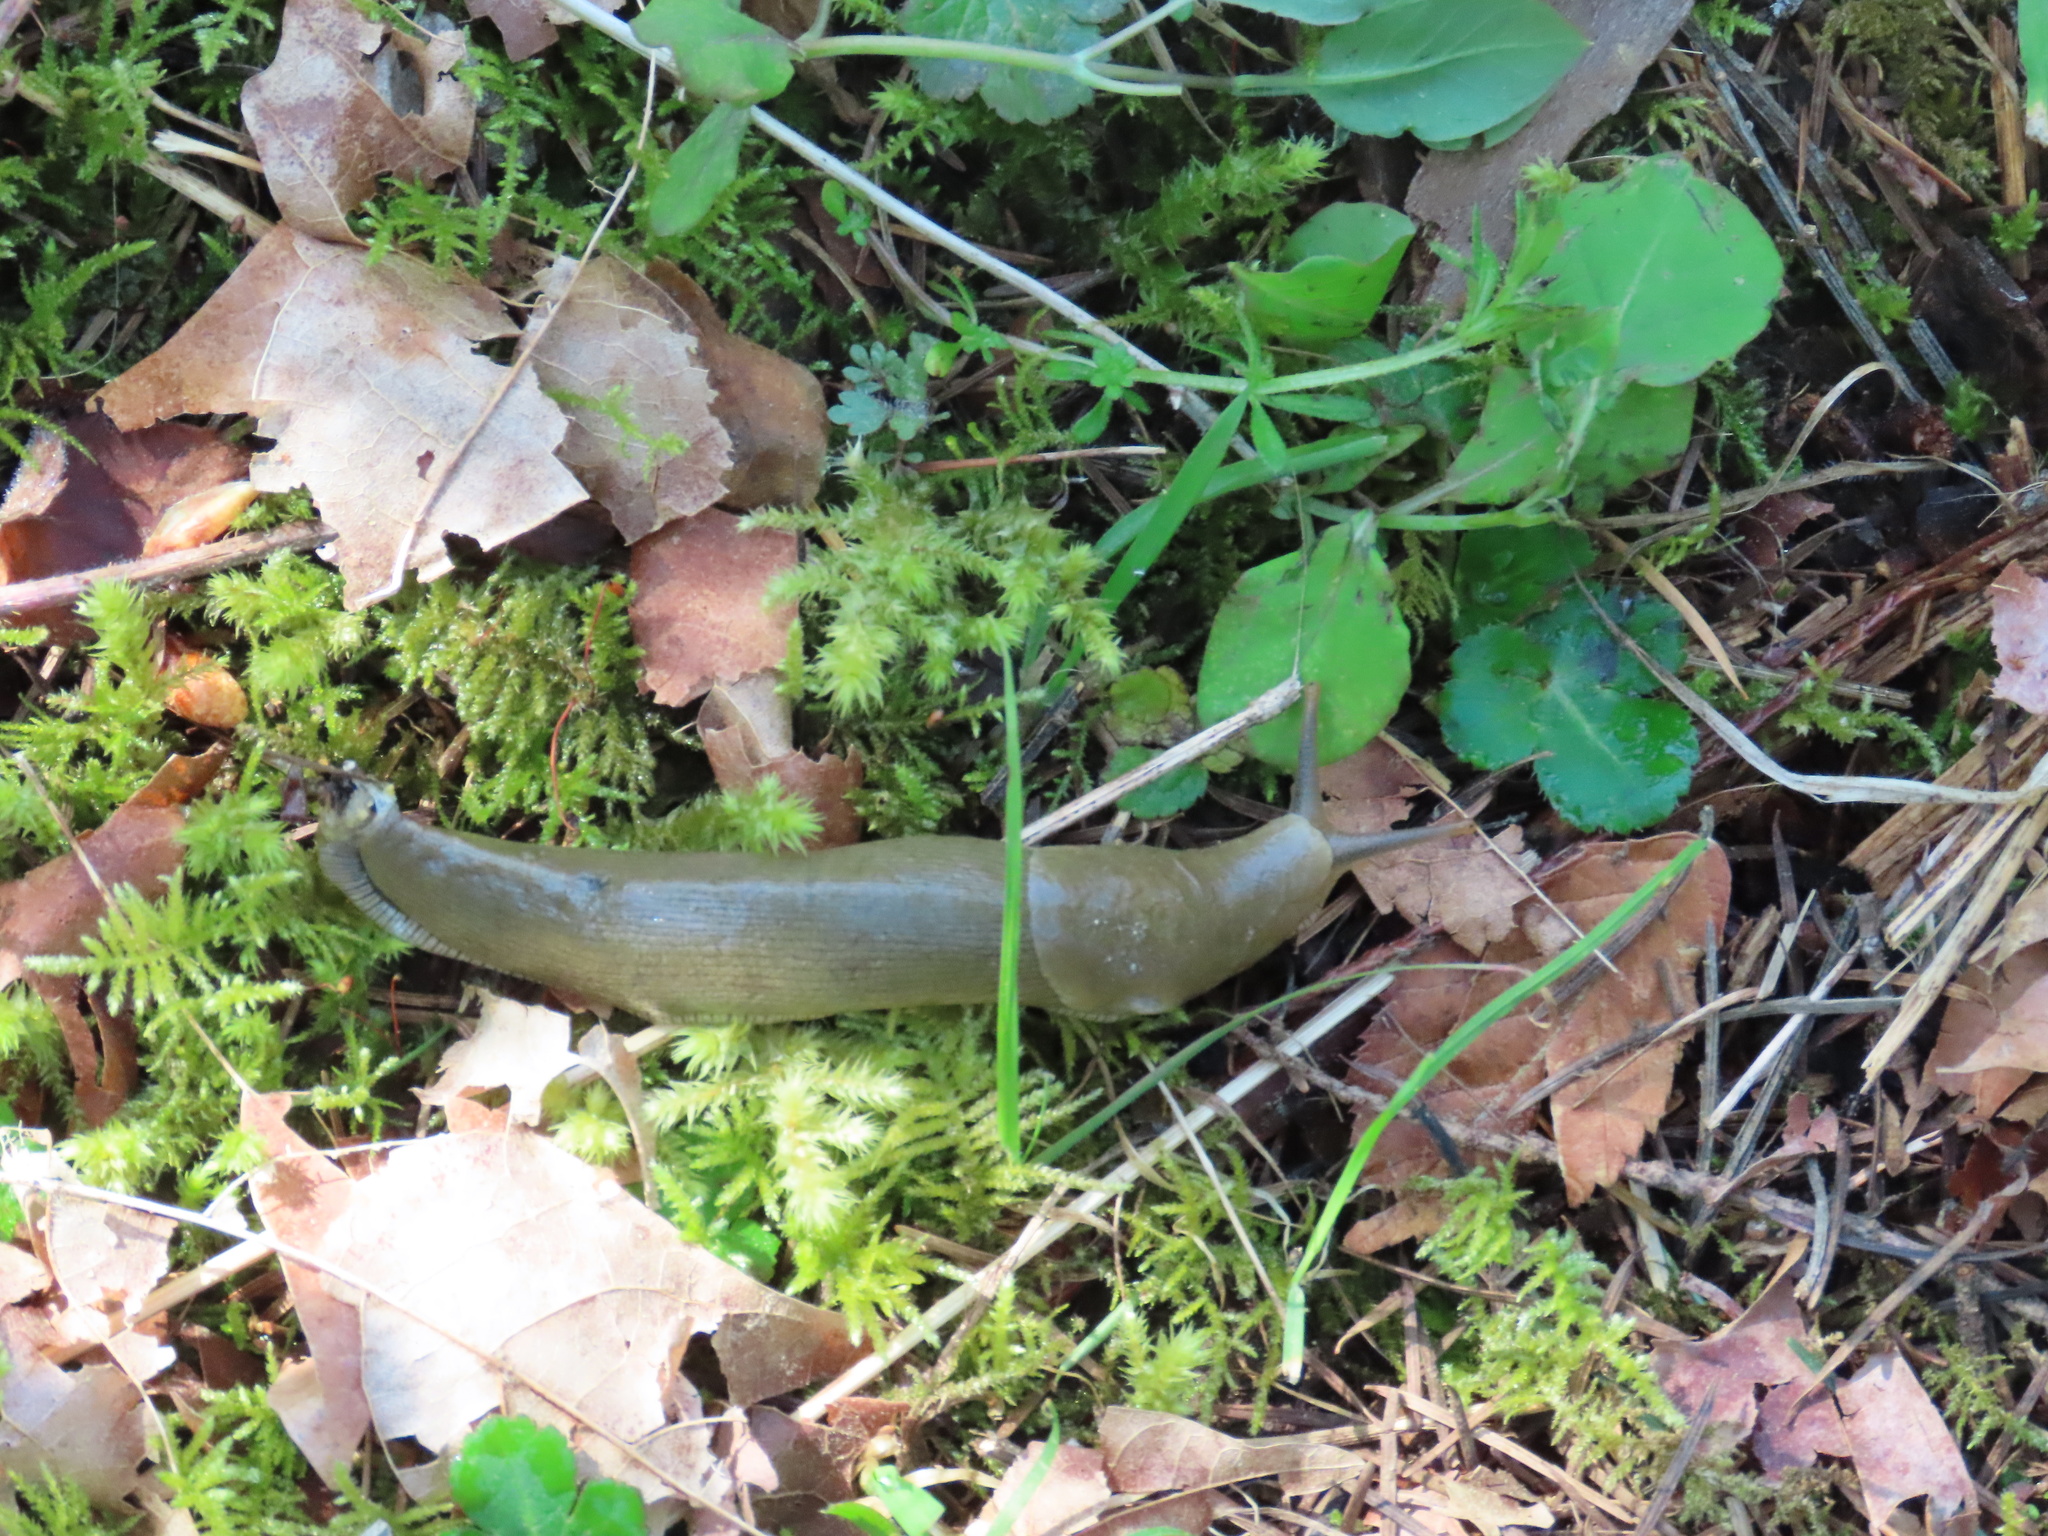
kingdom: Animalia
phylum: Mollusca
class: Gastropoda
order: Stylommatophora
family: Ariolimacidae
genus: Ariolimax
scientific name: Ariolimax columbianus
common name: Pacific banana slug
